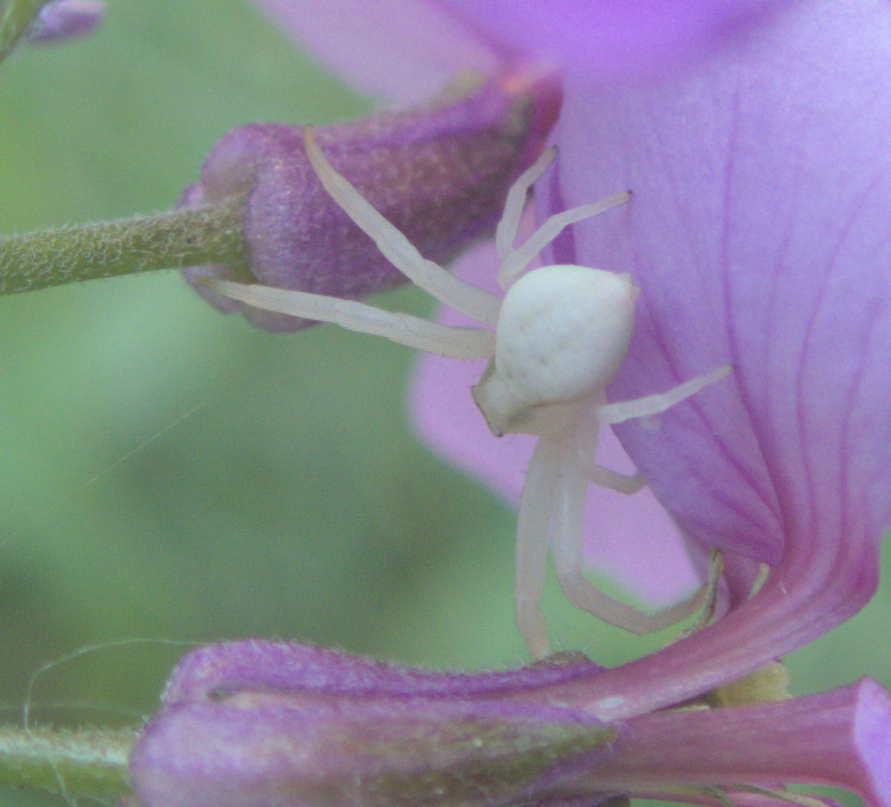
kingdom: Animalia
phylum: Arthropoda
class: Arachnida
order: Araneae
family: Thomisidae
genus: Misumena
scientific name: Misumena vatia
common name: Goldenrod crab spider
